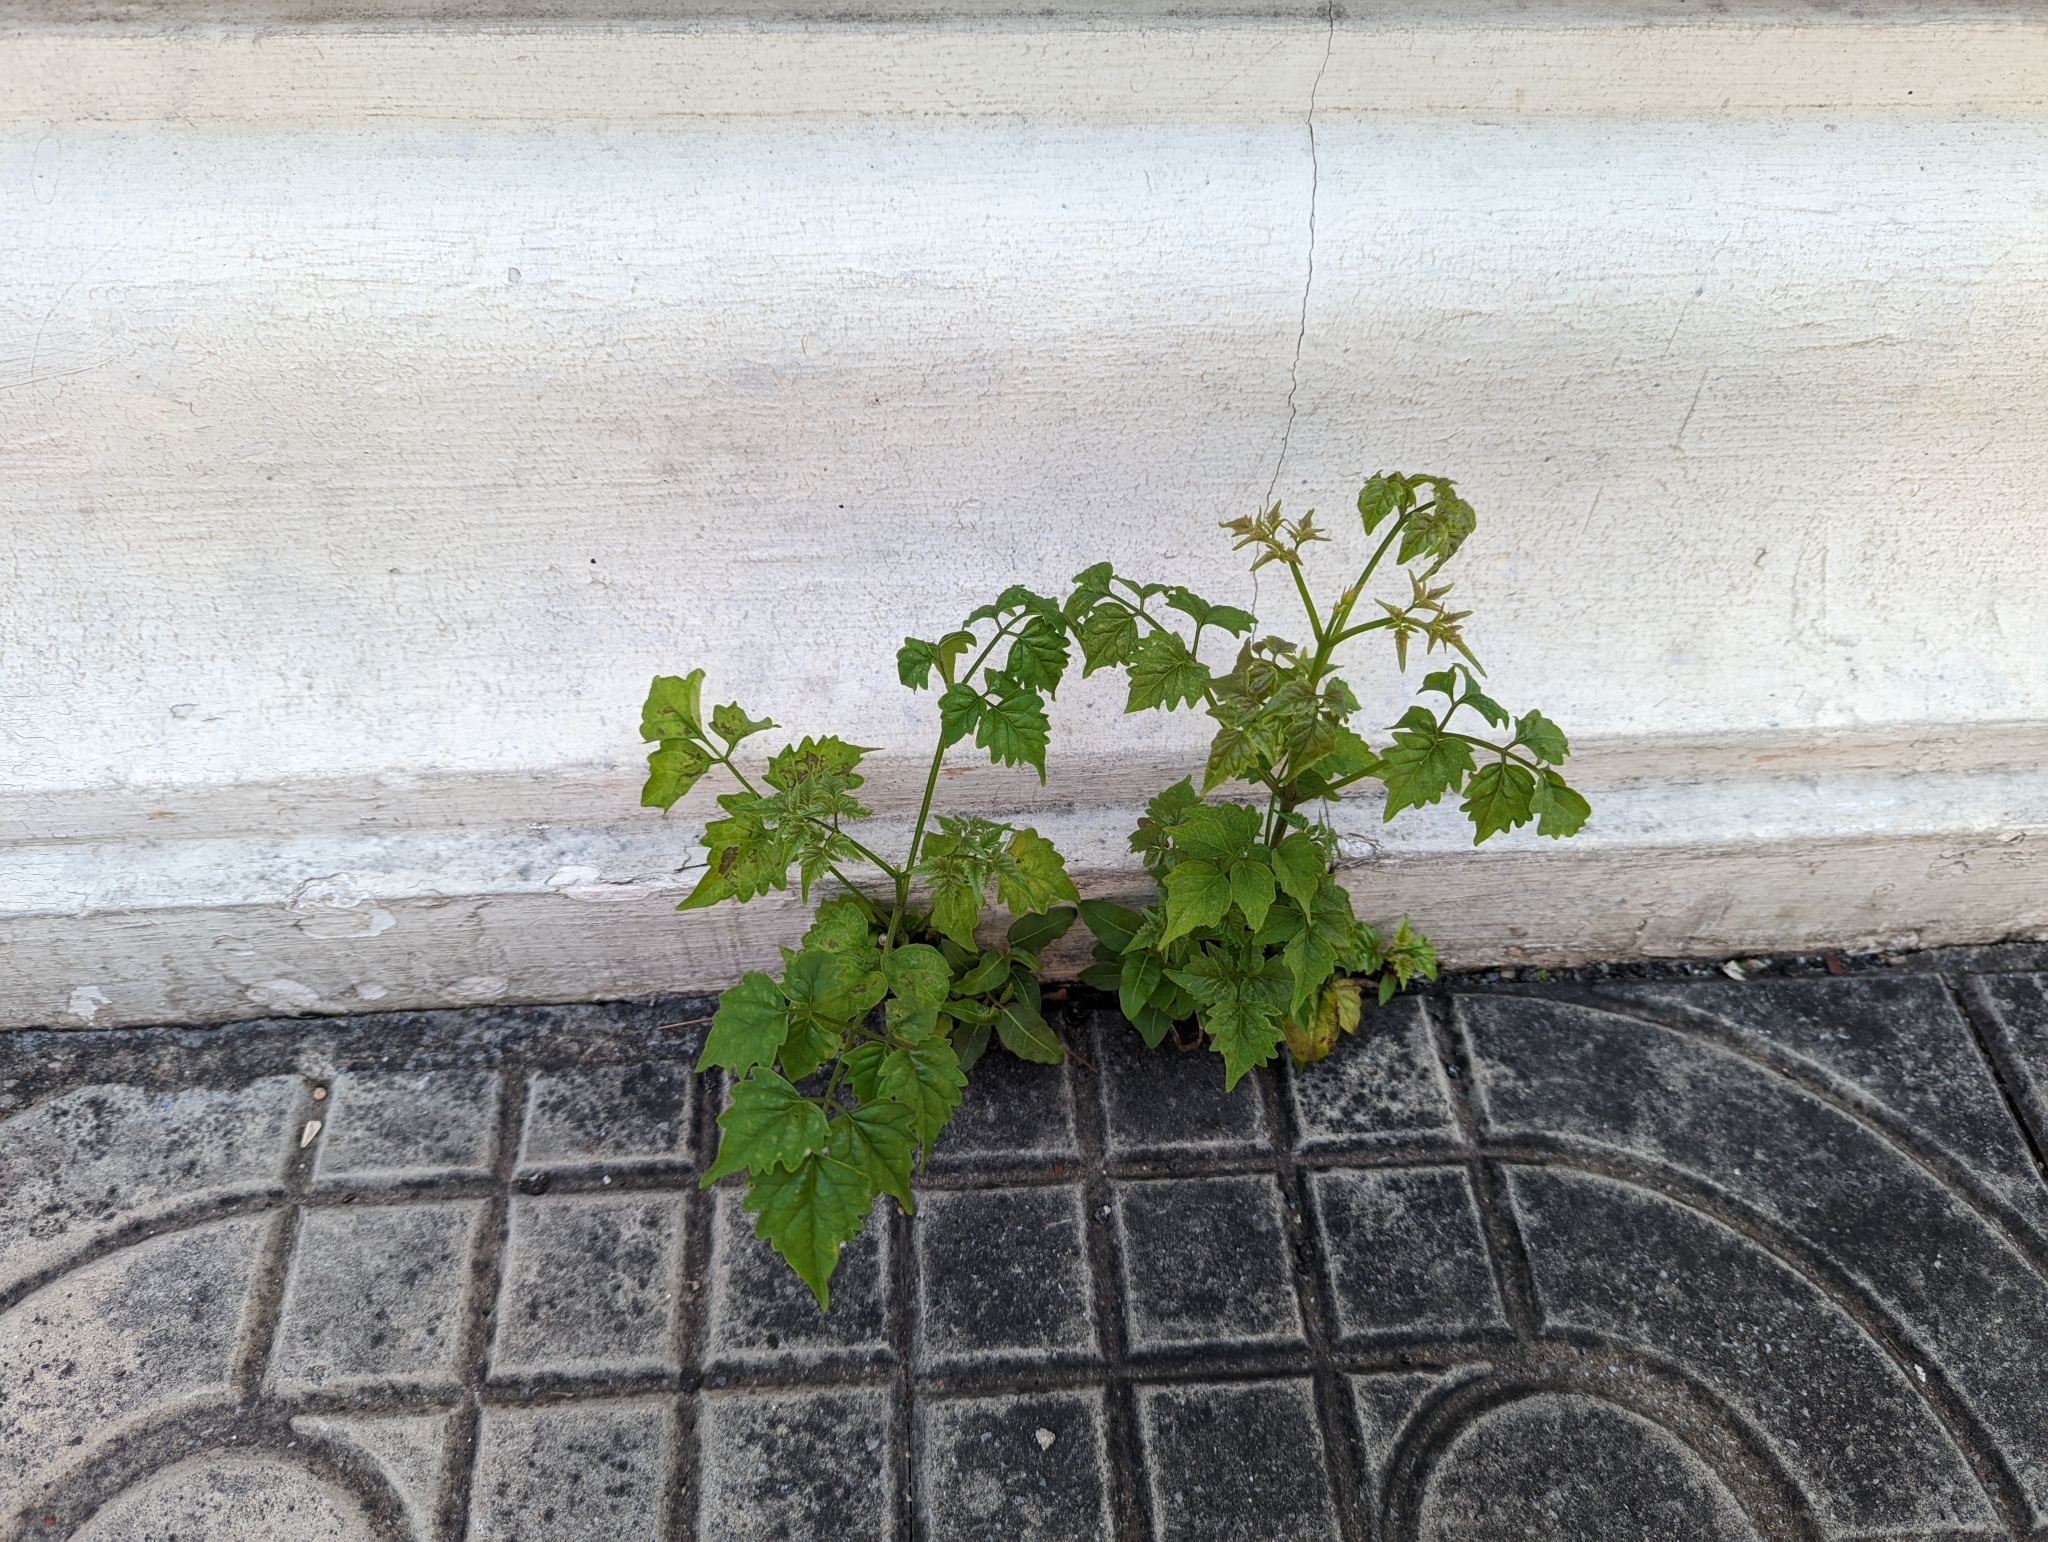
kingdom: Plantae
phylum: Tracheophyta
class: Magnoliopsida
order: Lamiales
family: Bignoniaceae
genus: Millingtonia
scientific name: Millingtonia hortensis
